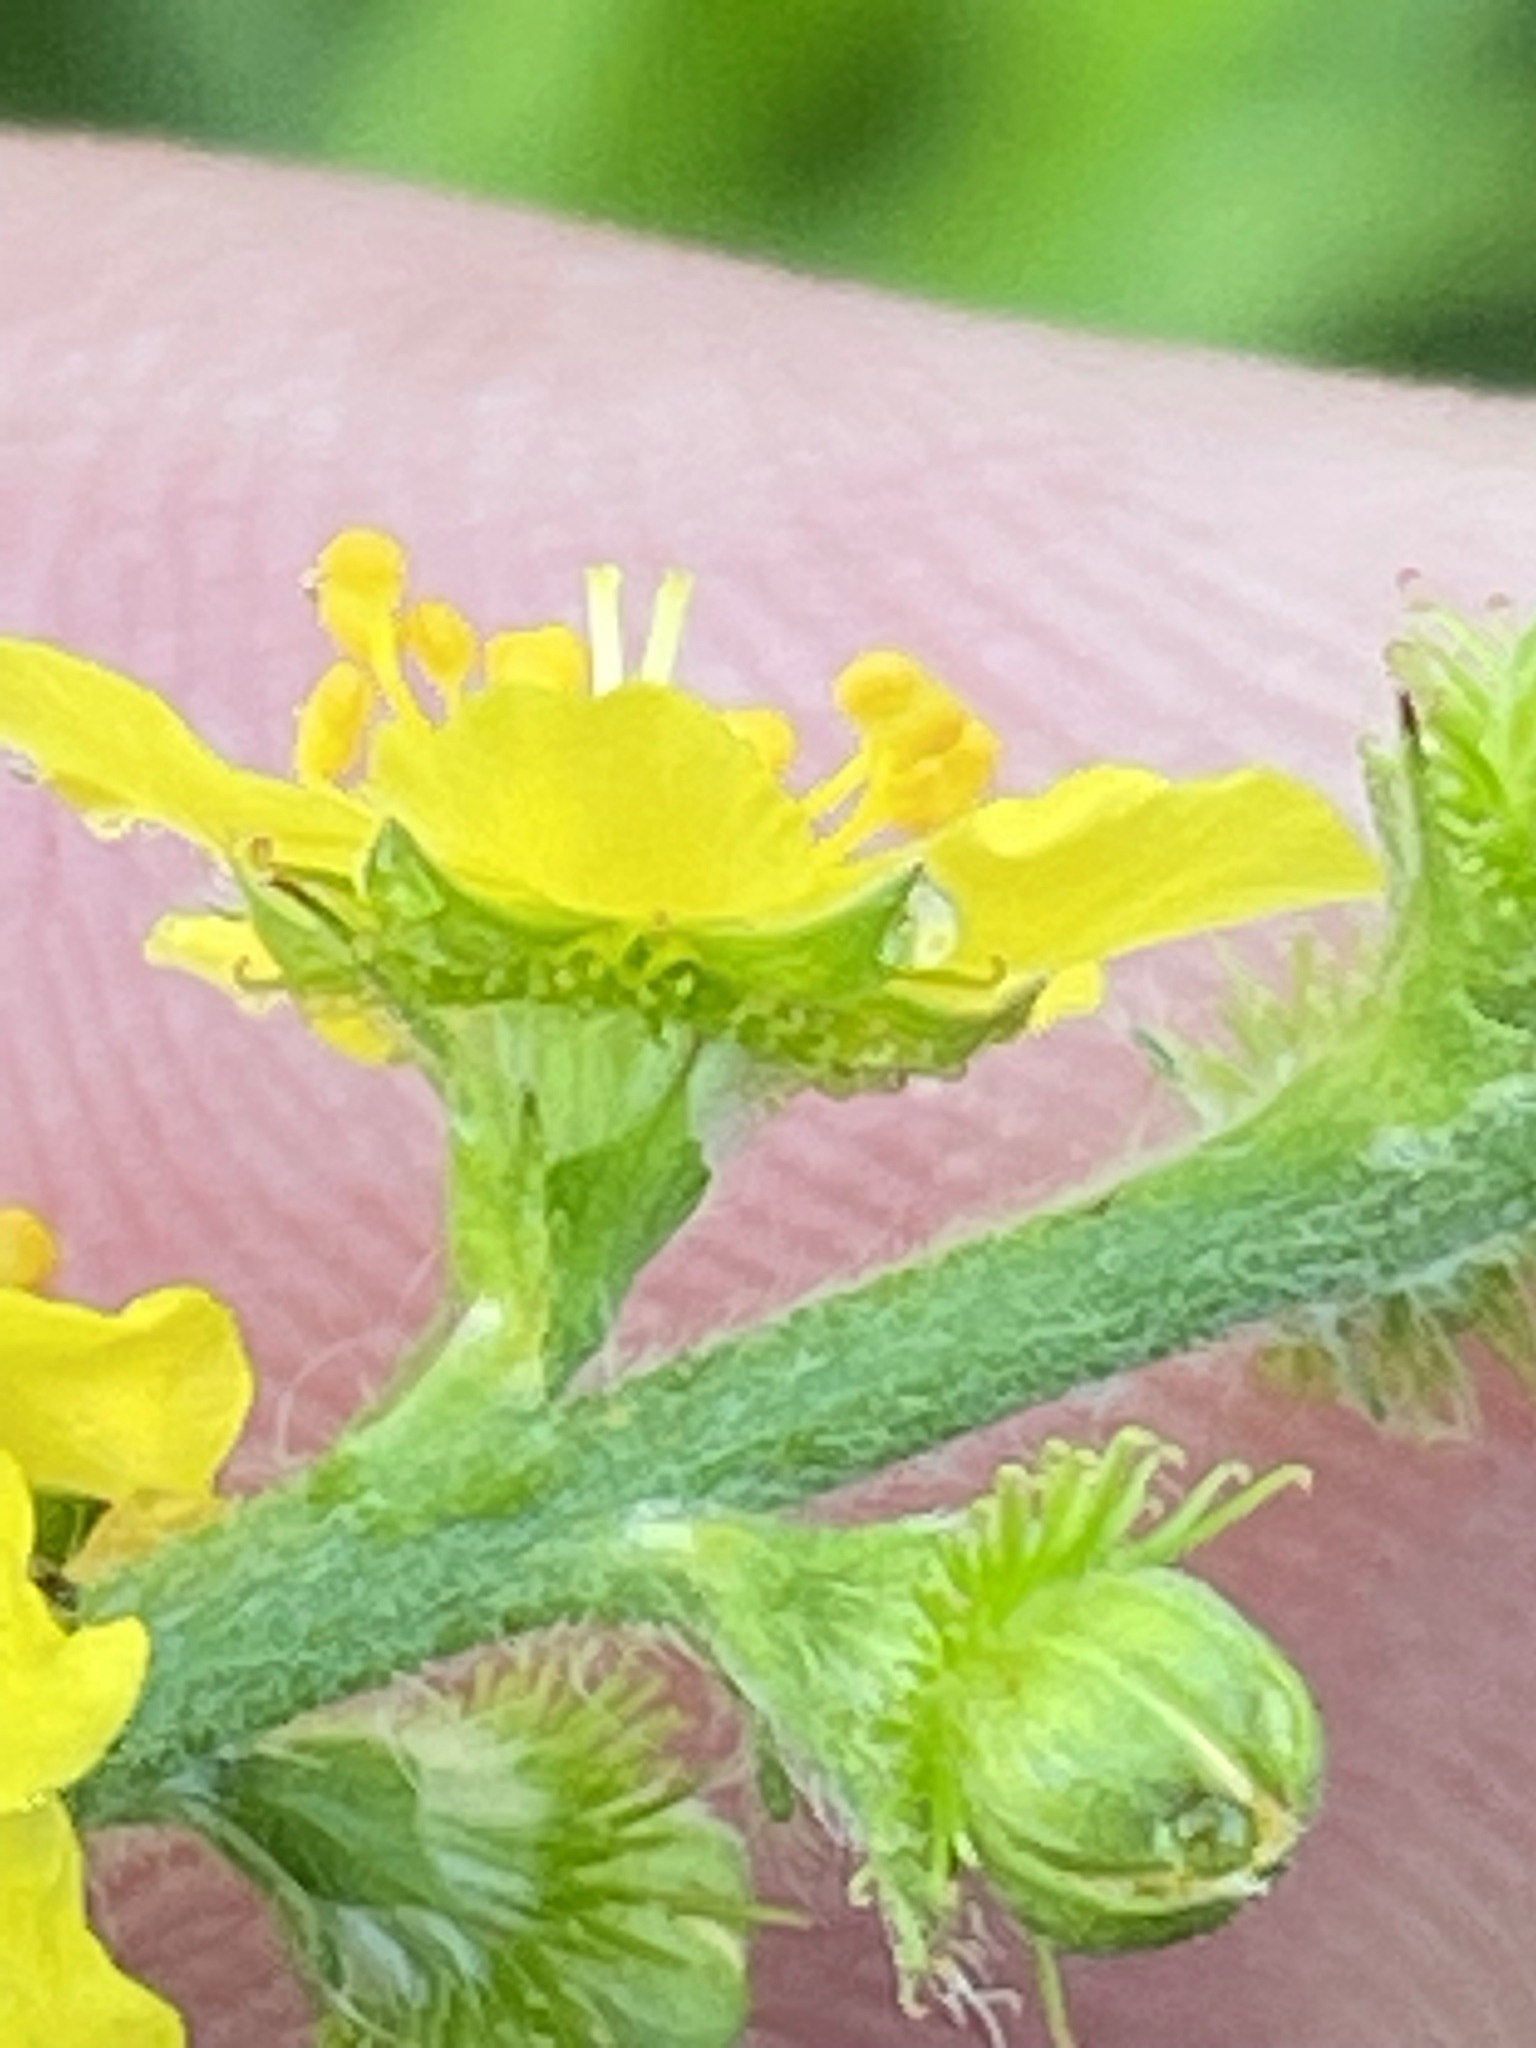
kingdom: Plantae
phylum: Tracheophyta
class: Magnoliopsida
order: Rosales
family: Rosaceae
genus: Agrimonia
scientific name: Agrimonia eupatoria
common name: Agrimony
